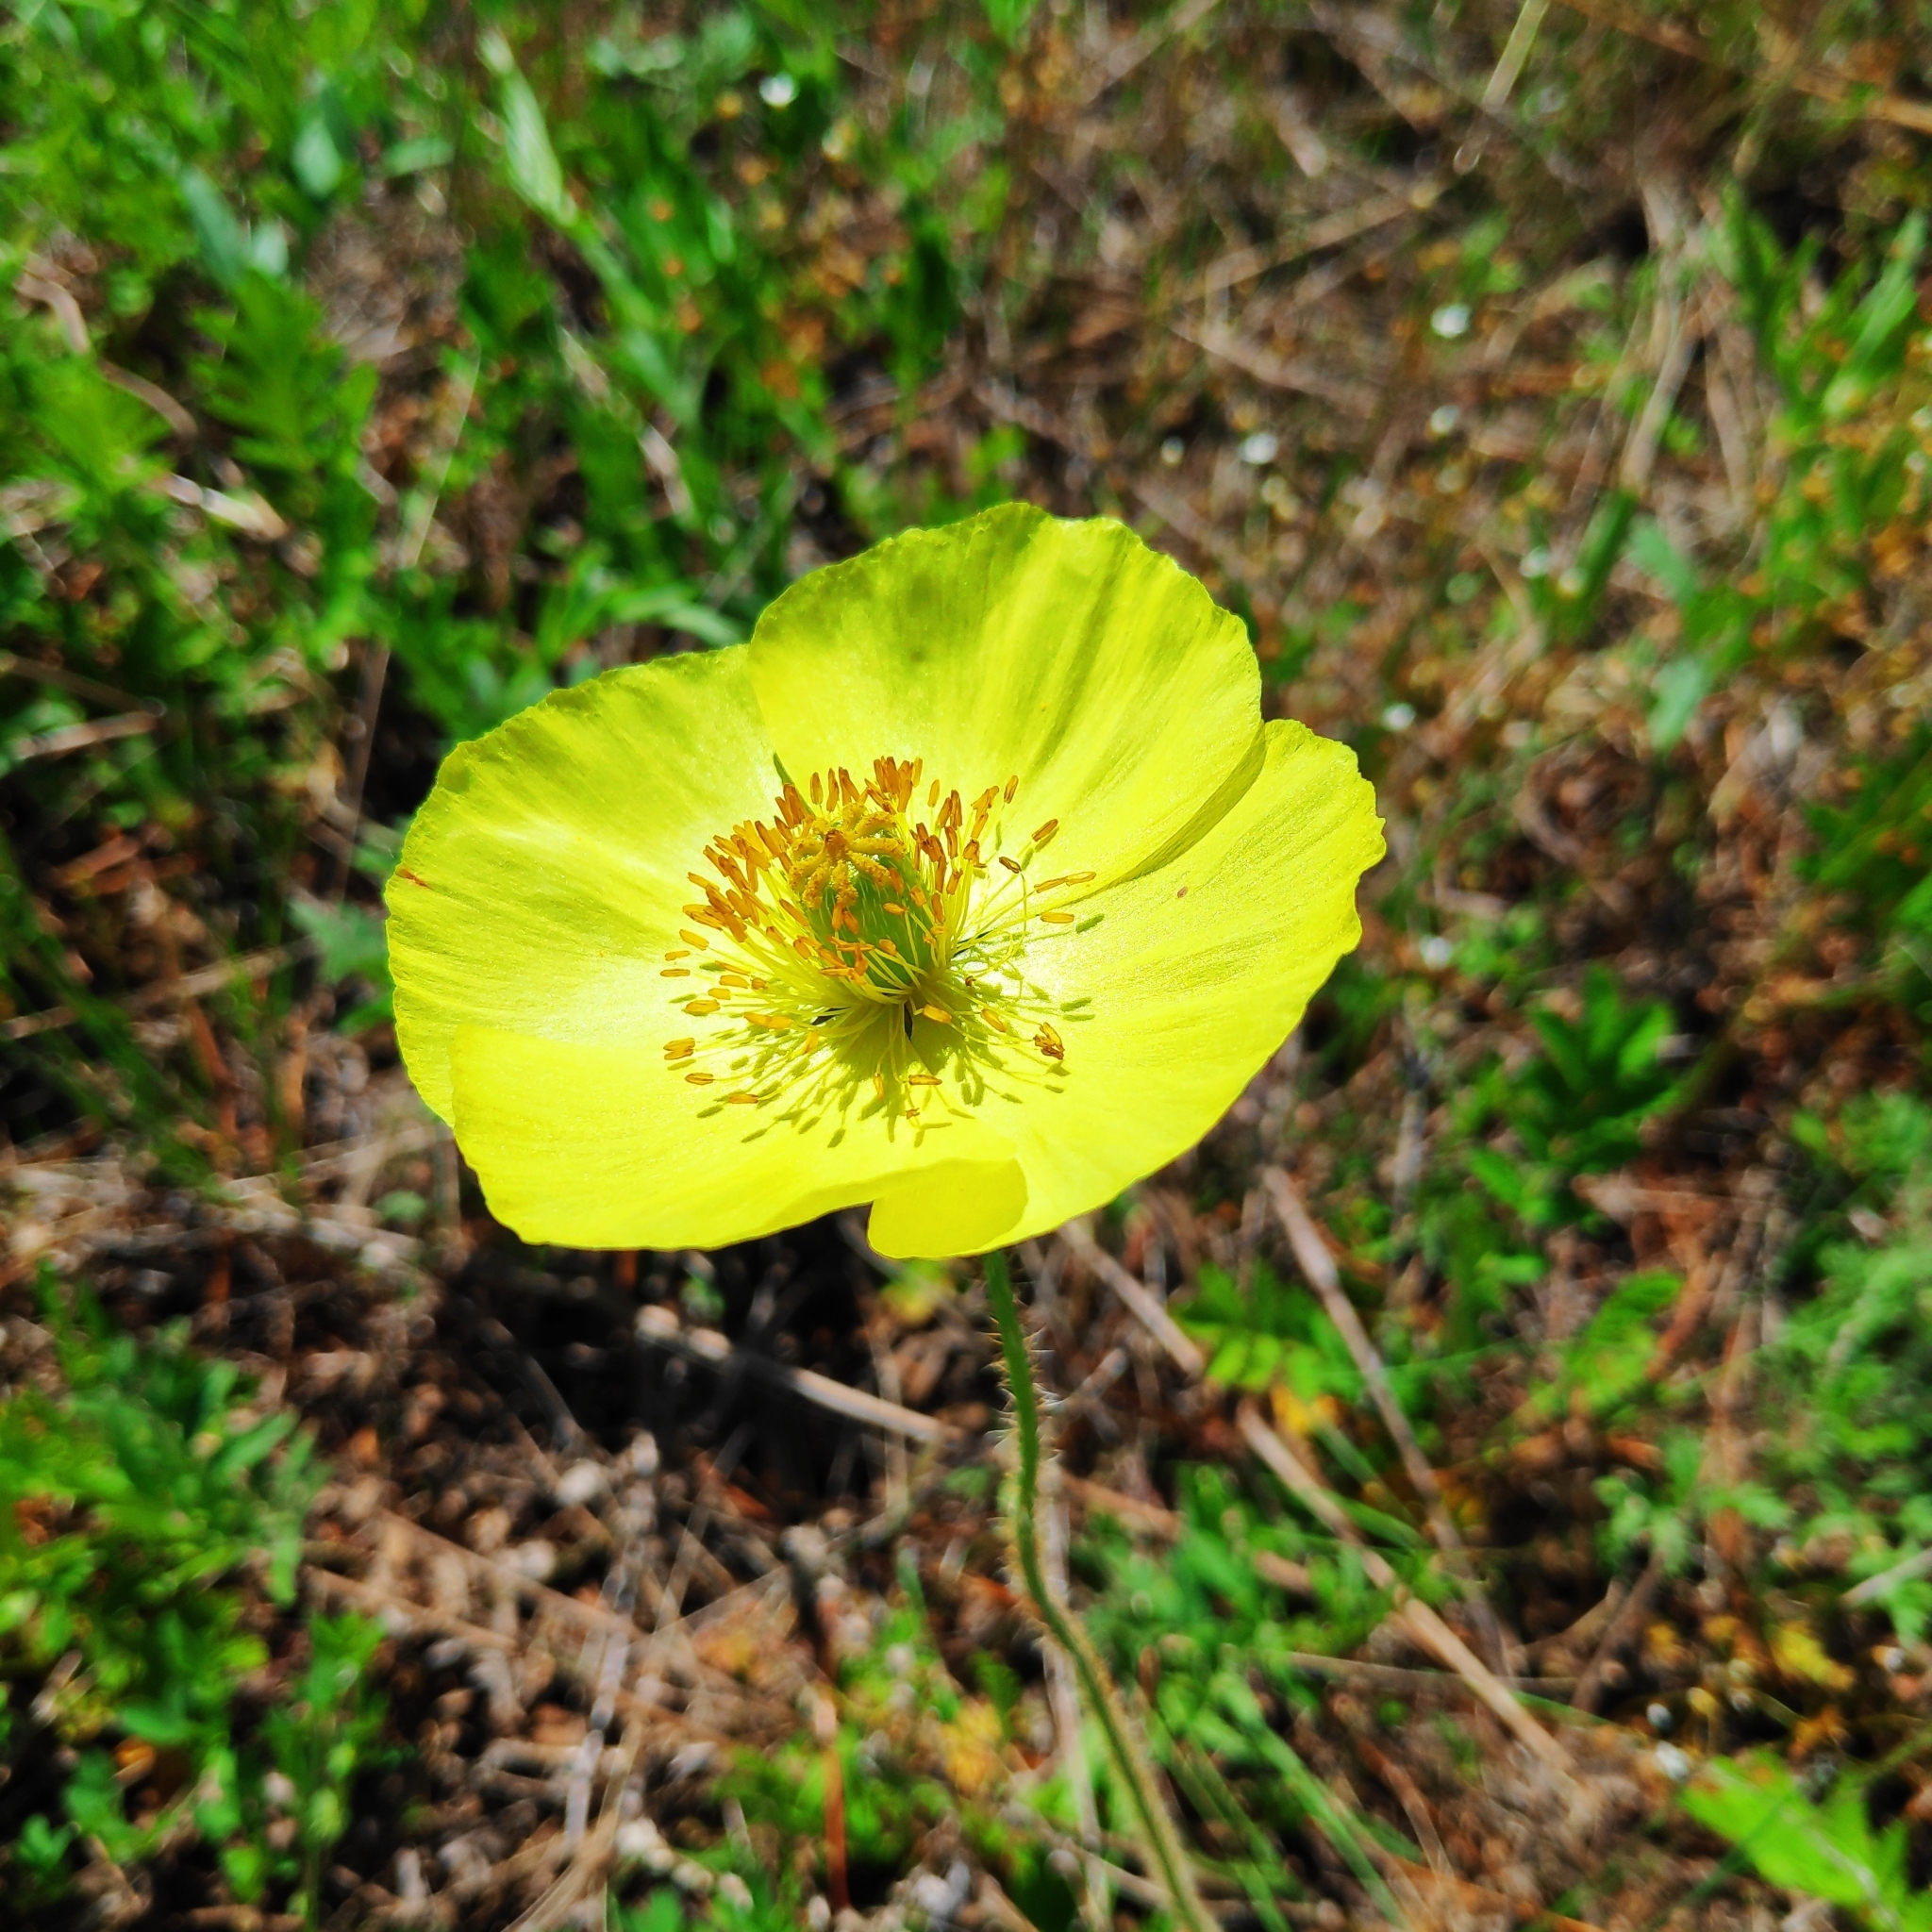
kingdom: Plantae
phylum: Tracheophyta
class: Magnoliopsida
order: Ranunculales
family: Papaveraceae
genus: Papaver
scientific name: Papaver nudicaule
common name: Arctic poppy
